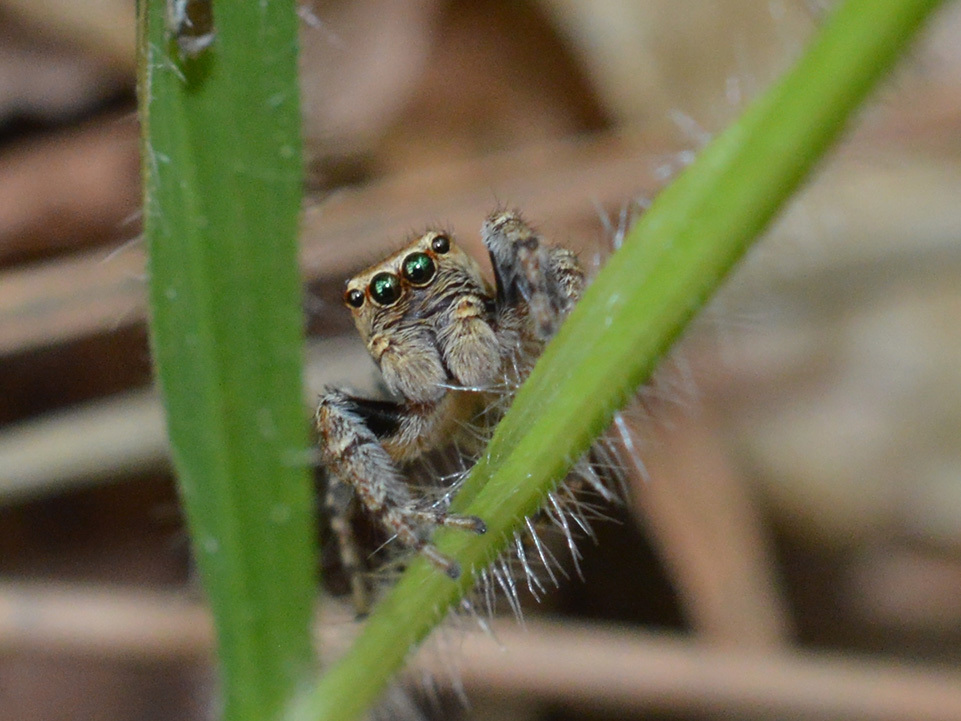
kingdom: Animalia
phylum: Arthropoda
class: Arachnida
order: Araneae
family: Salticidae
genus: Evarcha
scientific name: Evarcha falcata
